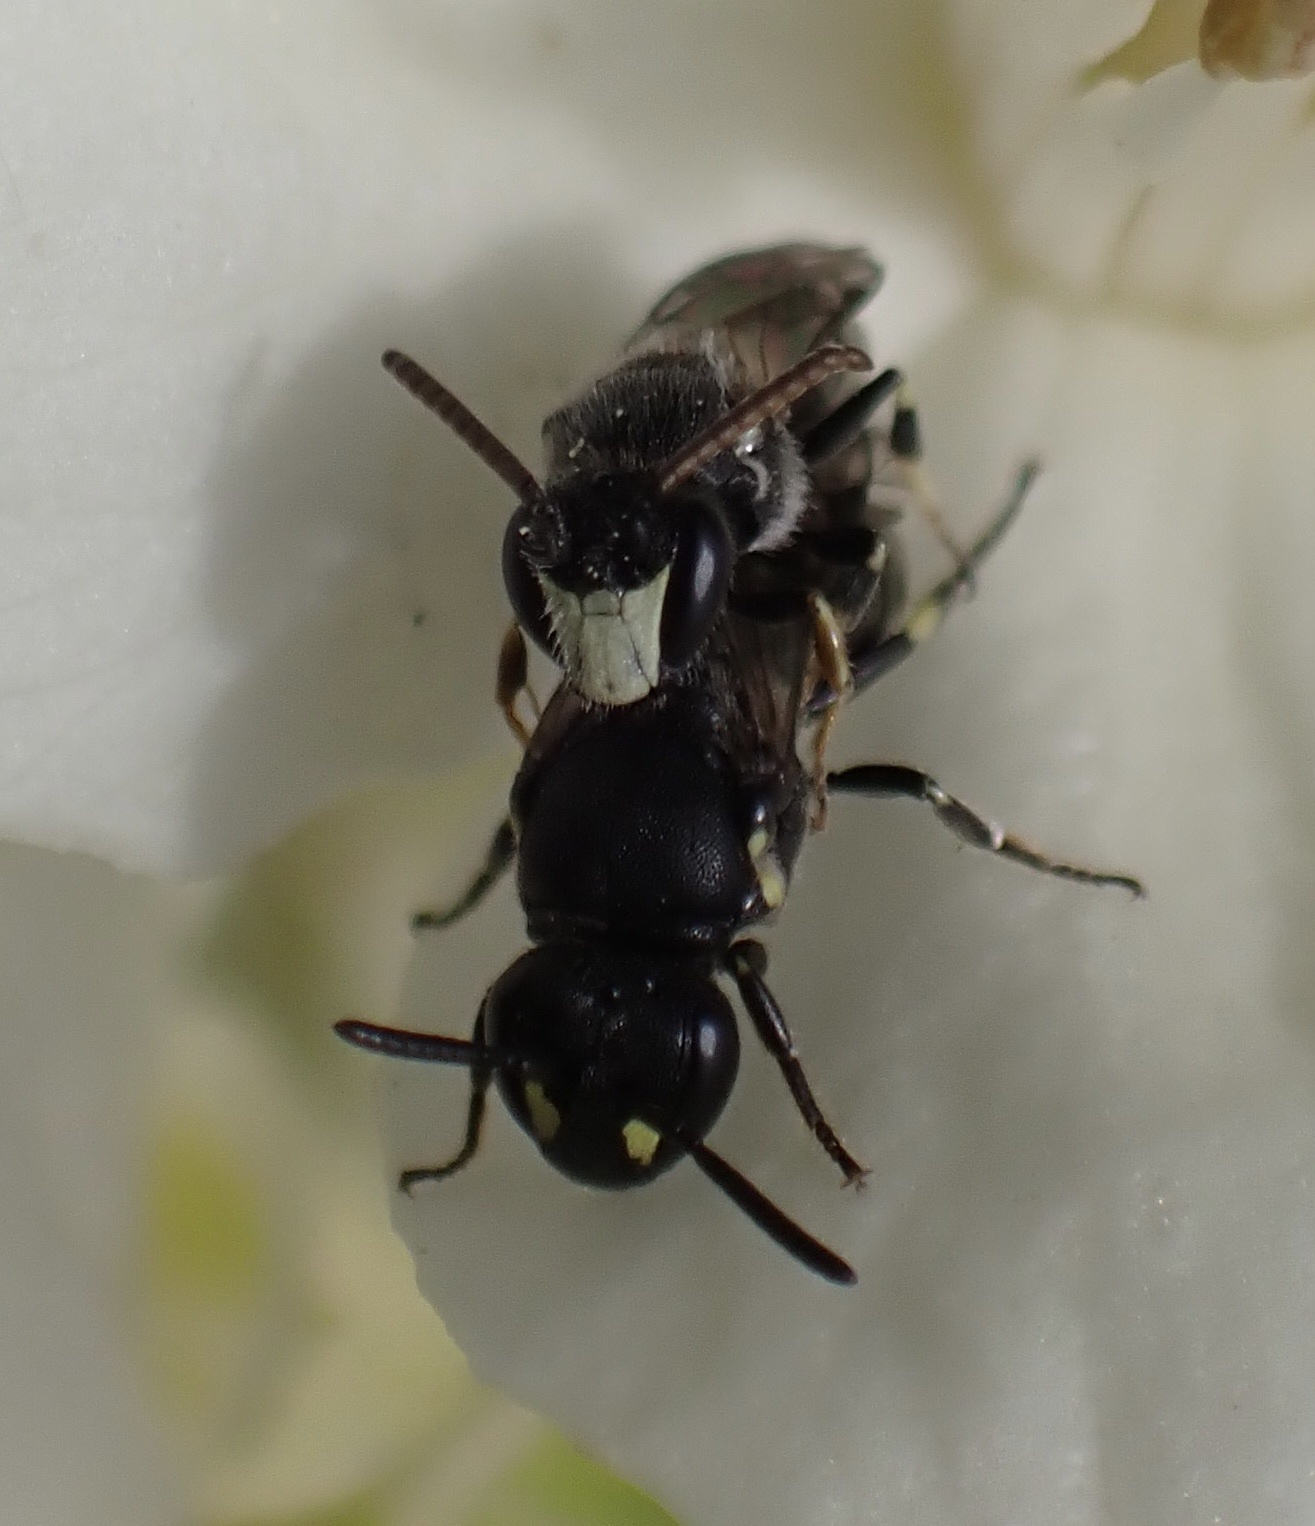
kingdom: Animalia
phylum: Arthropoda
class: Insecta
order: Hymenoptera
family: Colletidae
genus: Hylaeus
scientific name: Hylaeus hyalinatus
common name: Hyaline masked bee
